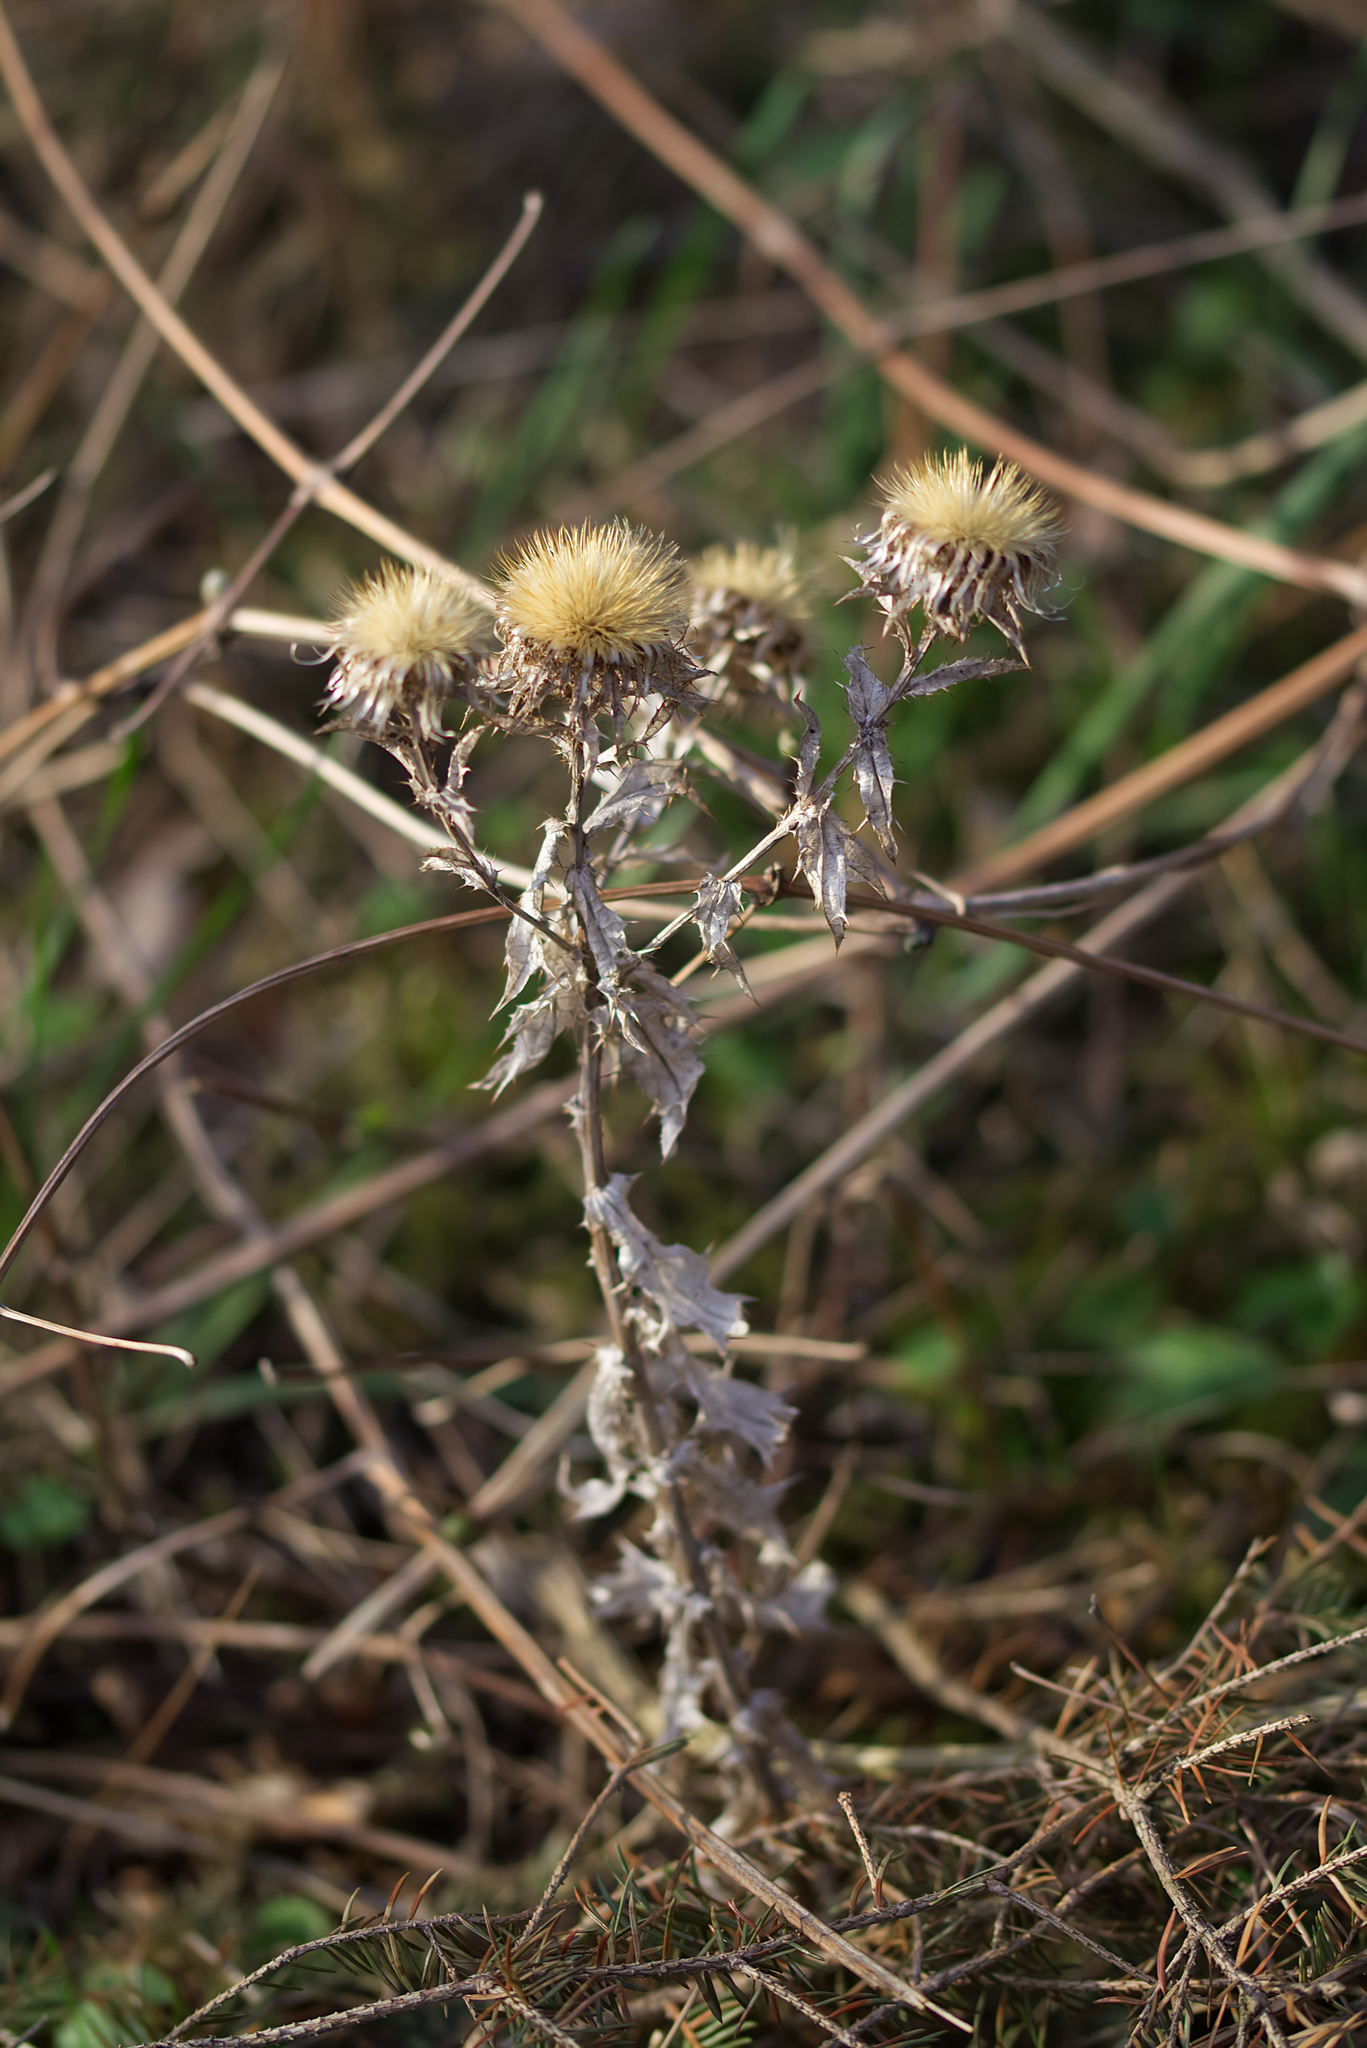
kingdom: Plantae
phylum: Tracheophyta
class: Magnoliopsida
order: Asterales
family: Asteraceae
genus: Carlina
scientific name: Carlina biebersteinii
